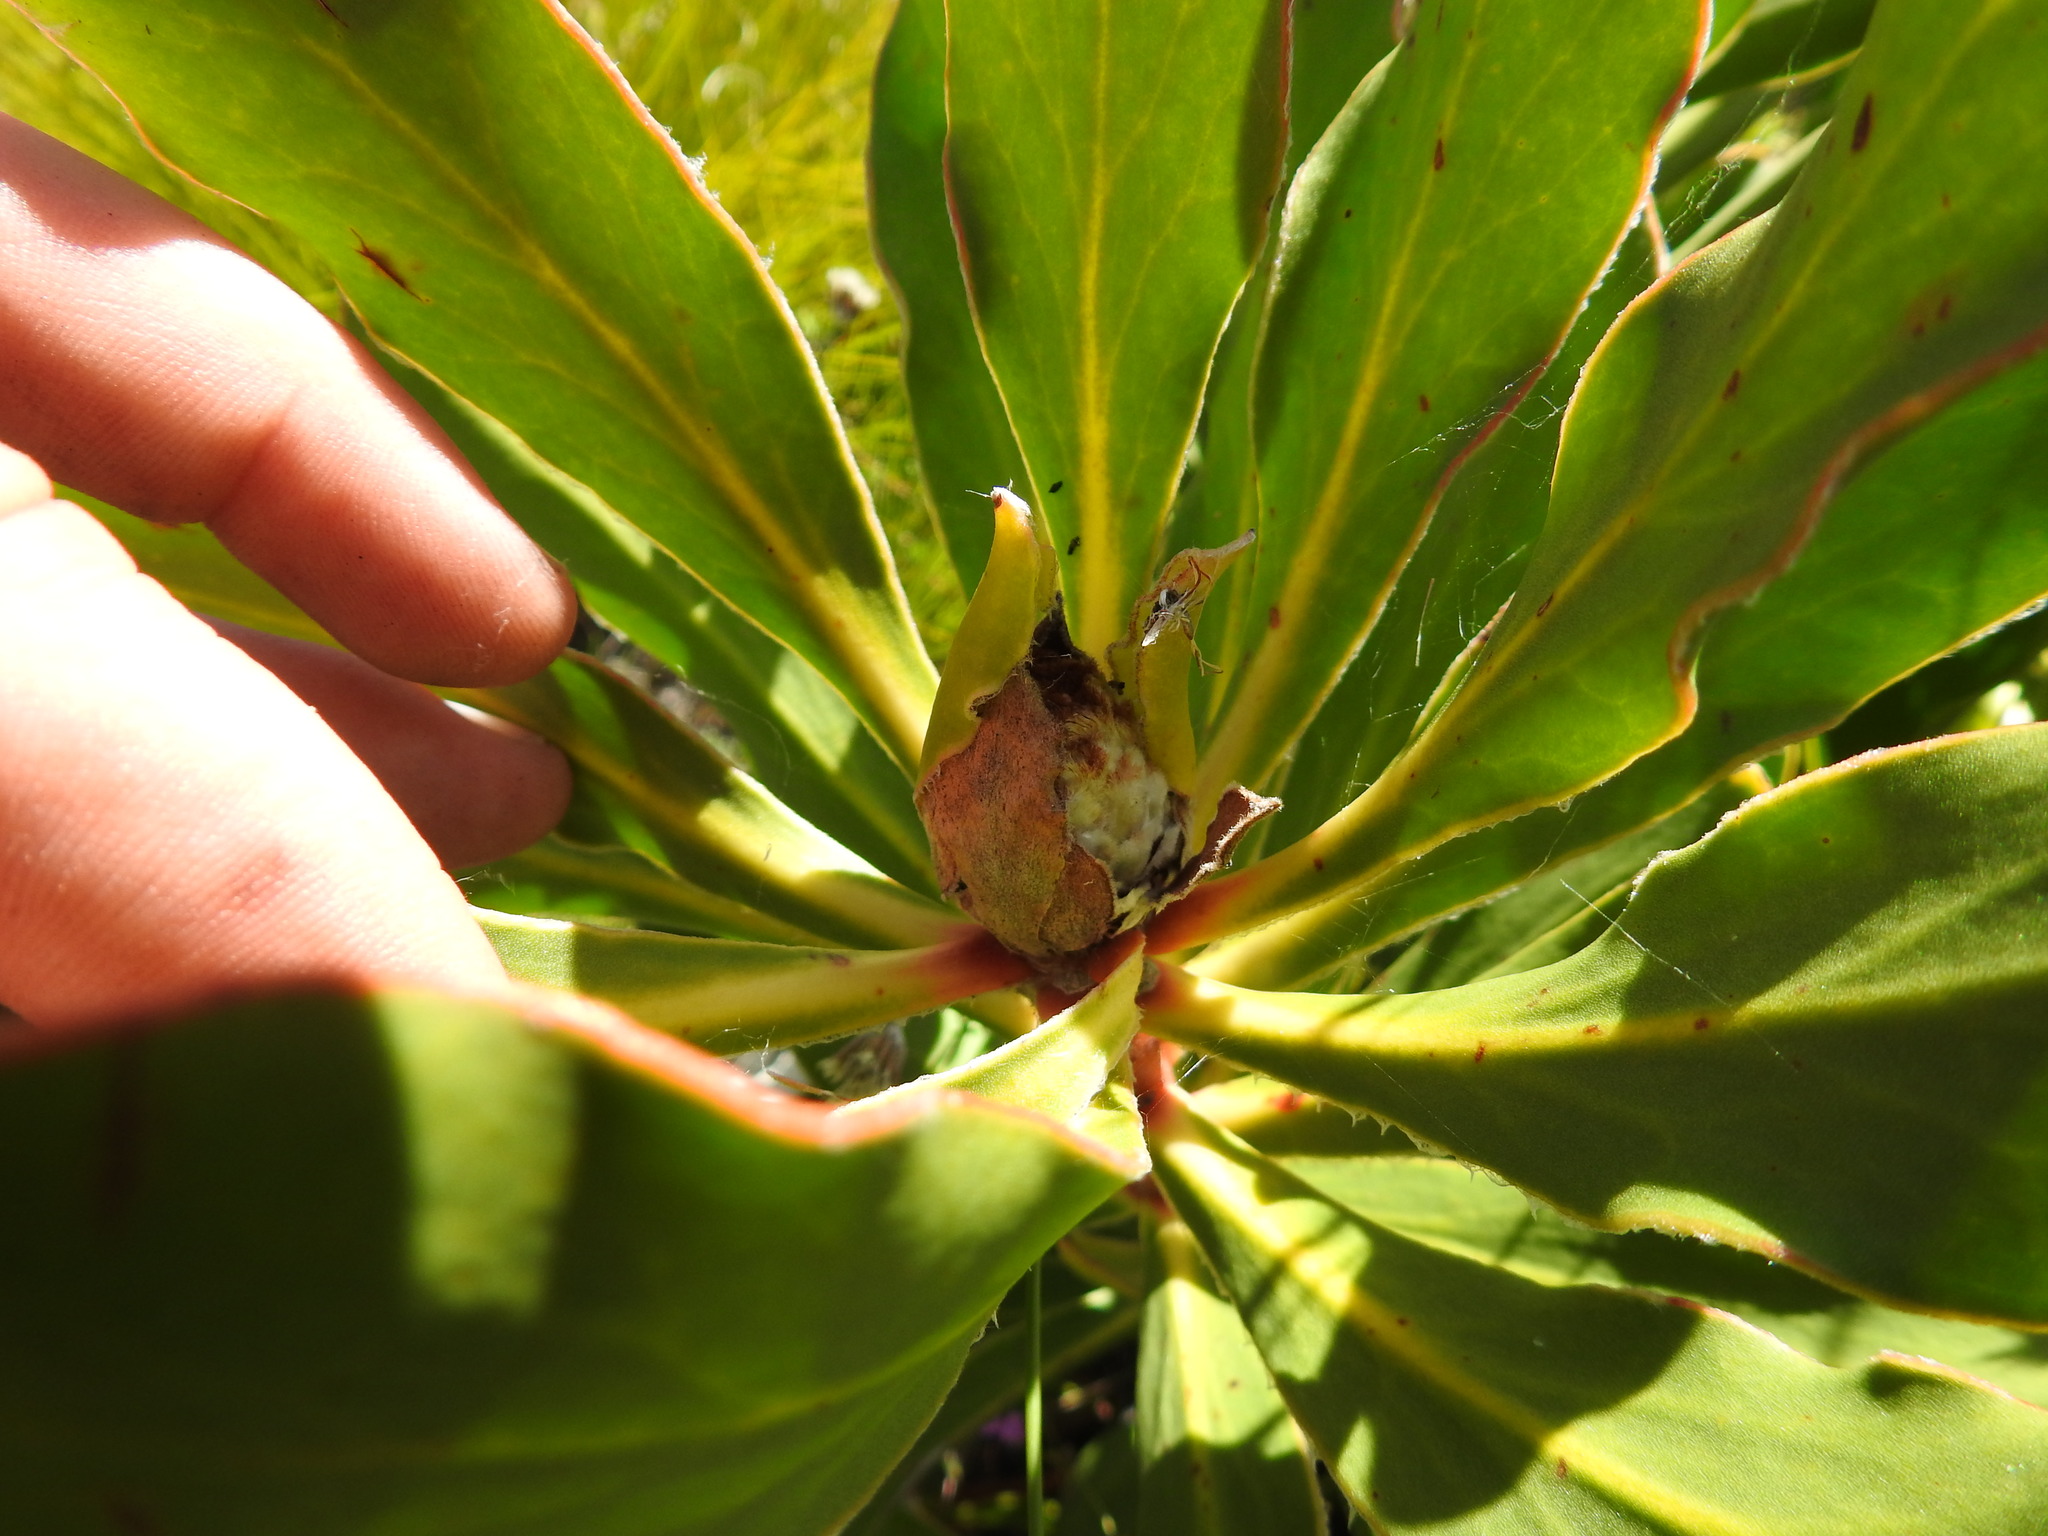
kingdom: Plantae
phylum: Tracheophyta
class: Magnoliopsida
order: Proteales
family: Proteaceae
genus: Protea
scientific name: Protea speciosa
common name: Brown-beard sugarbush
